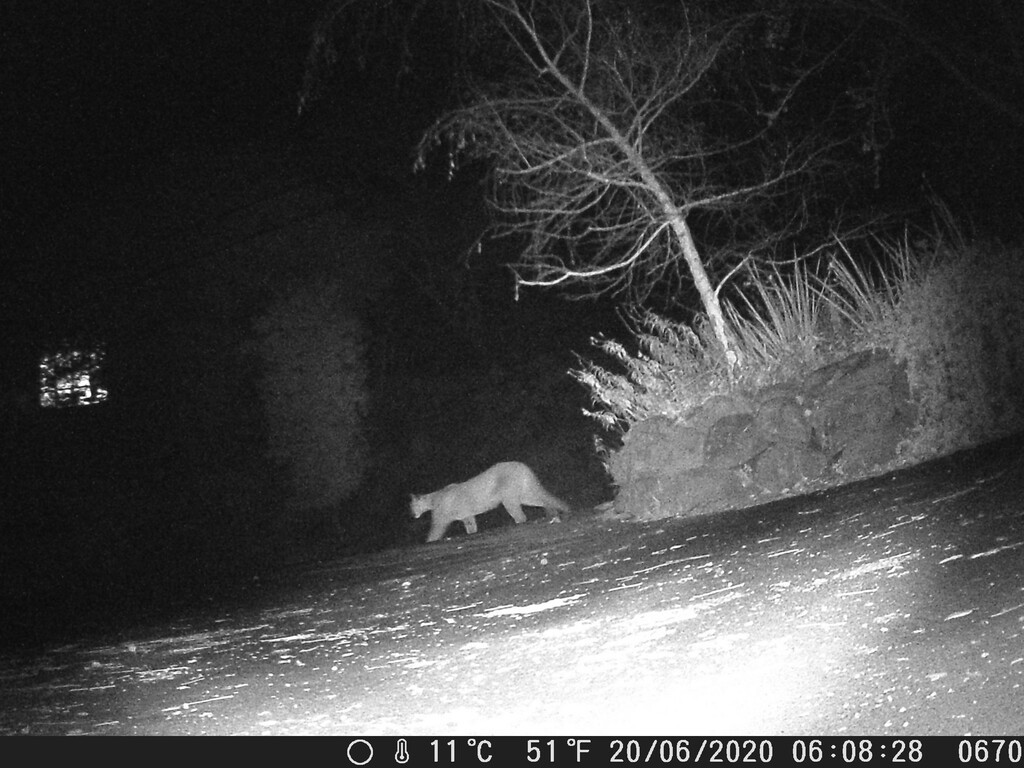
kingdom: Animalia
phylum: Chordata
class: Mammalia
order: Carnivora
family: Felidae
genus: Puma
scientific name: Puma concolor
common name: Puma
